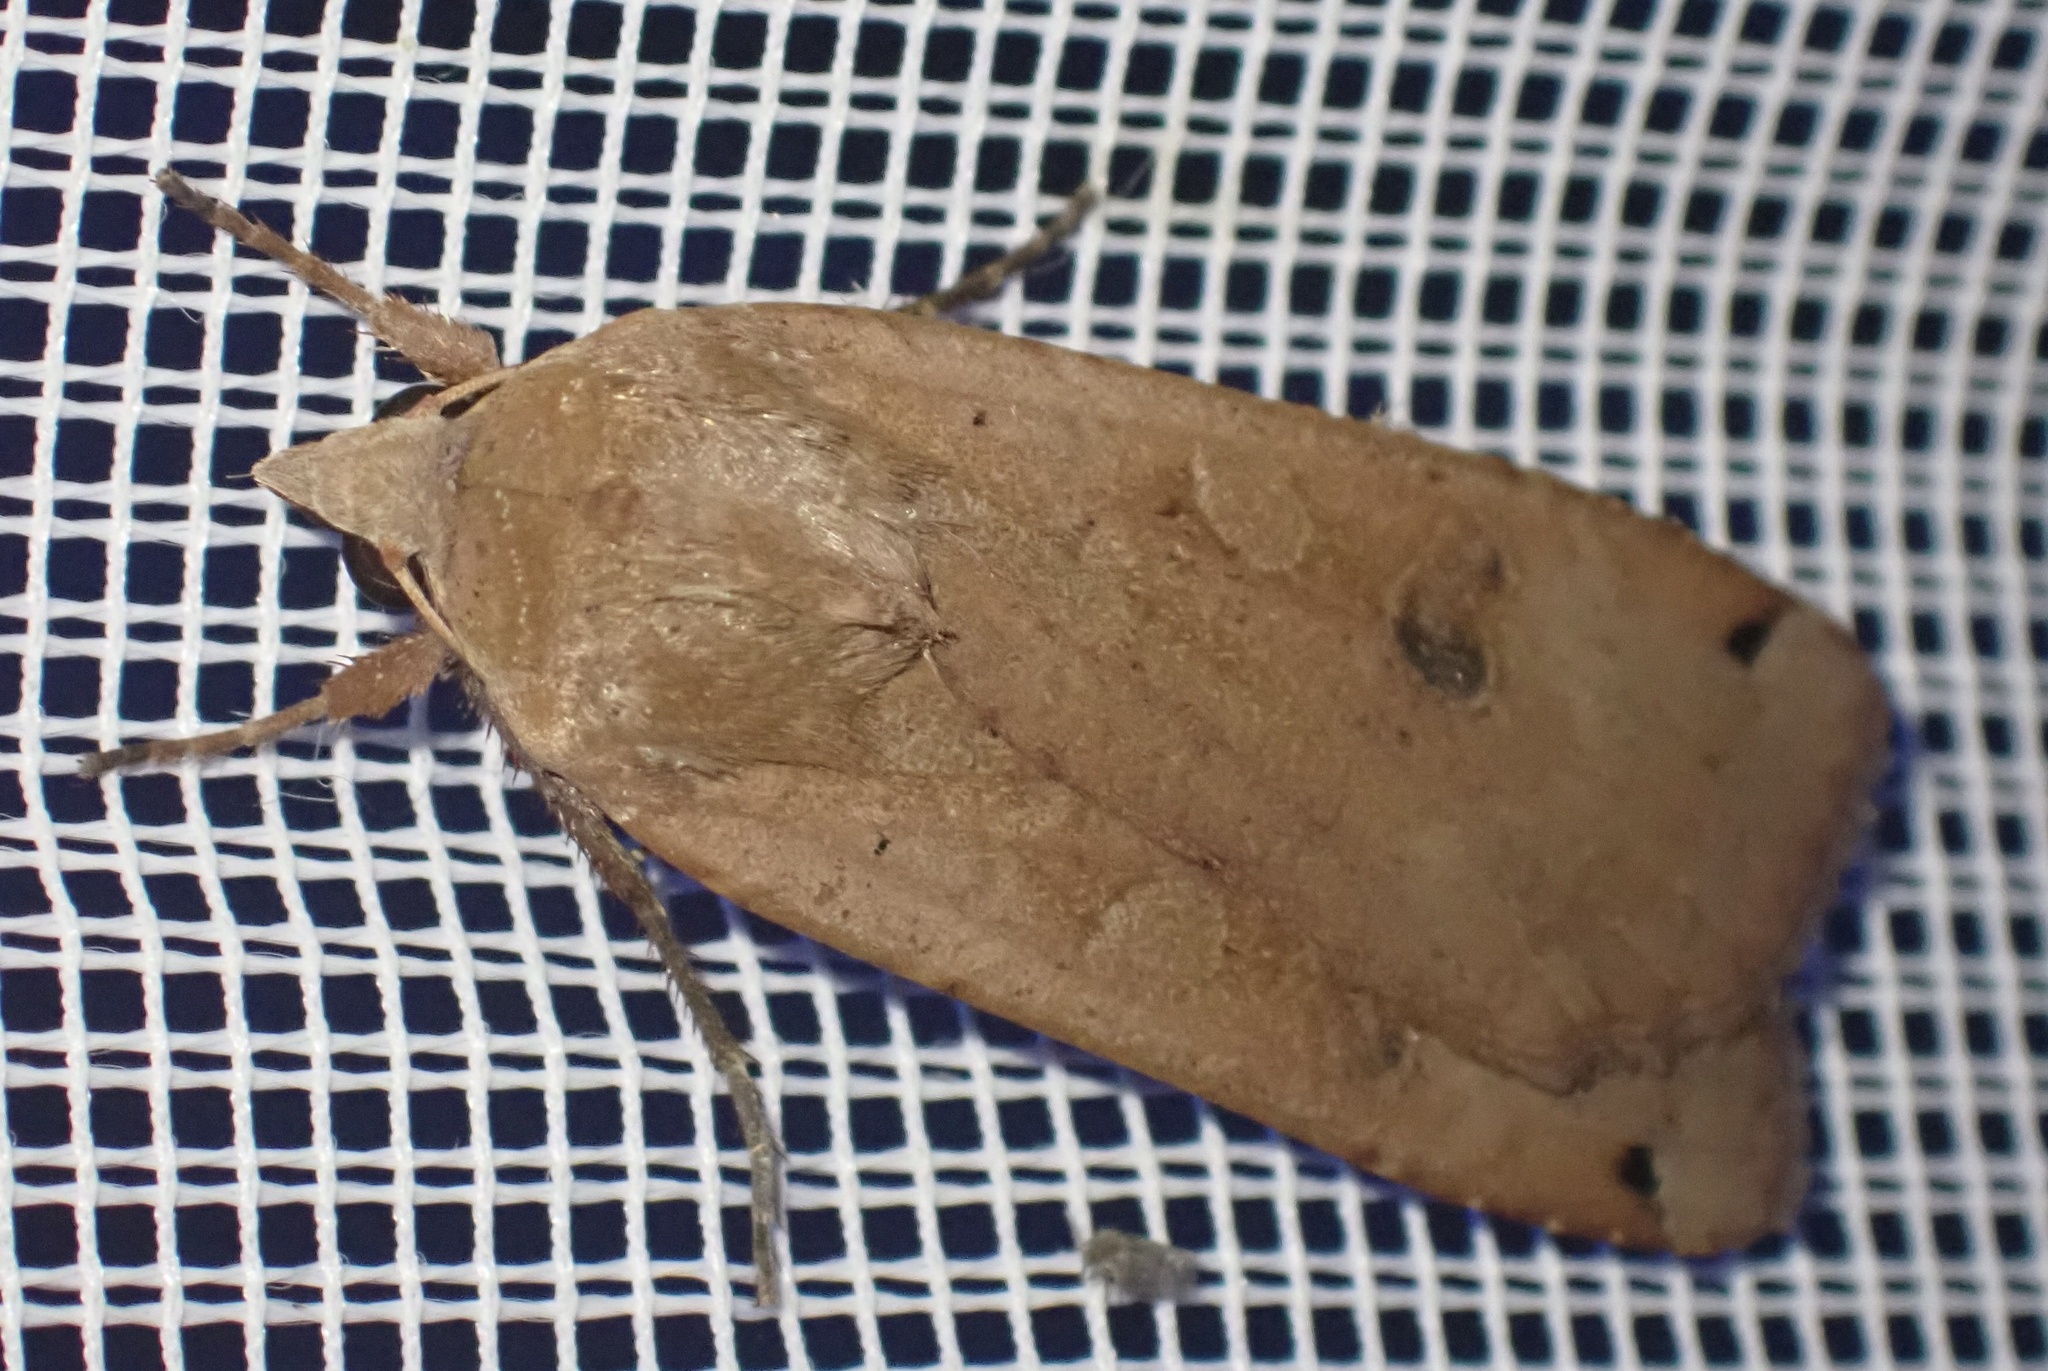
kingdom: Animalia
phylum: Arthropoda
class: Insecta
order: Lepidoptera
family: Noctuidae
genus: Noctua
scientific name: Noctua pronuba
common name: Large yellow underwing
